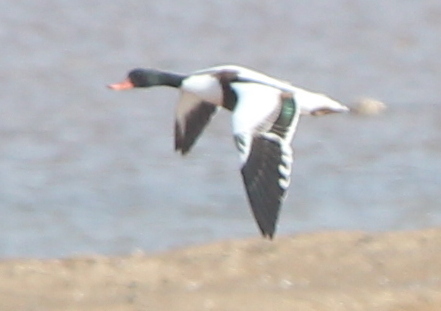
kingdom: Animalia
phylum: Chordata
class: Aves
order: Anseriformes
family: Anatidae
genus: Tadorna
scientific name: Tadorna tadorna
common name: Common shelduck
